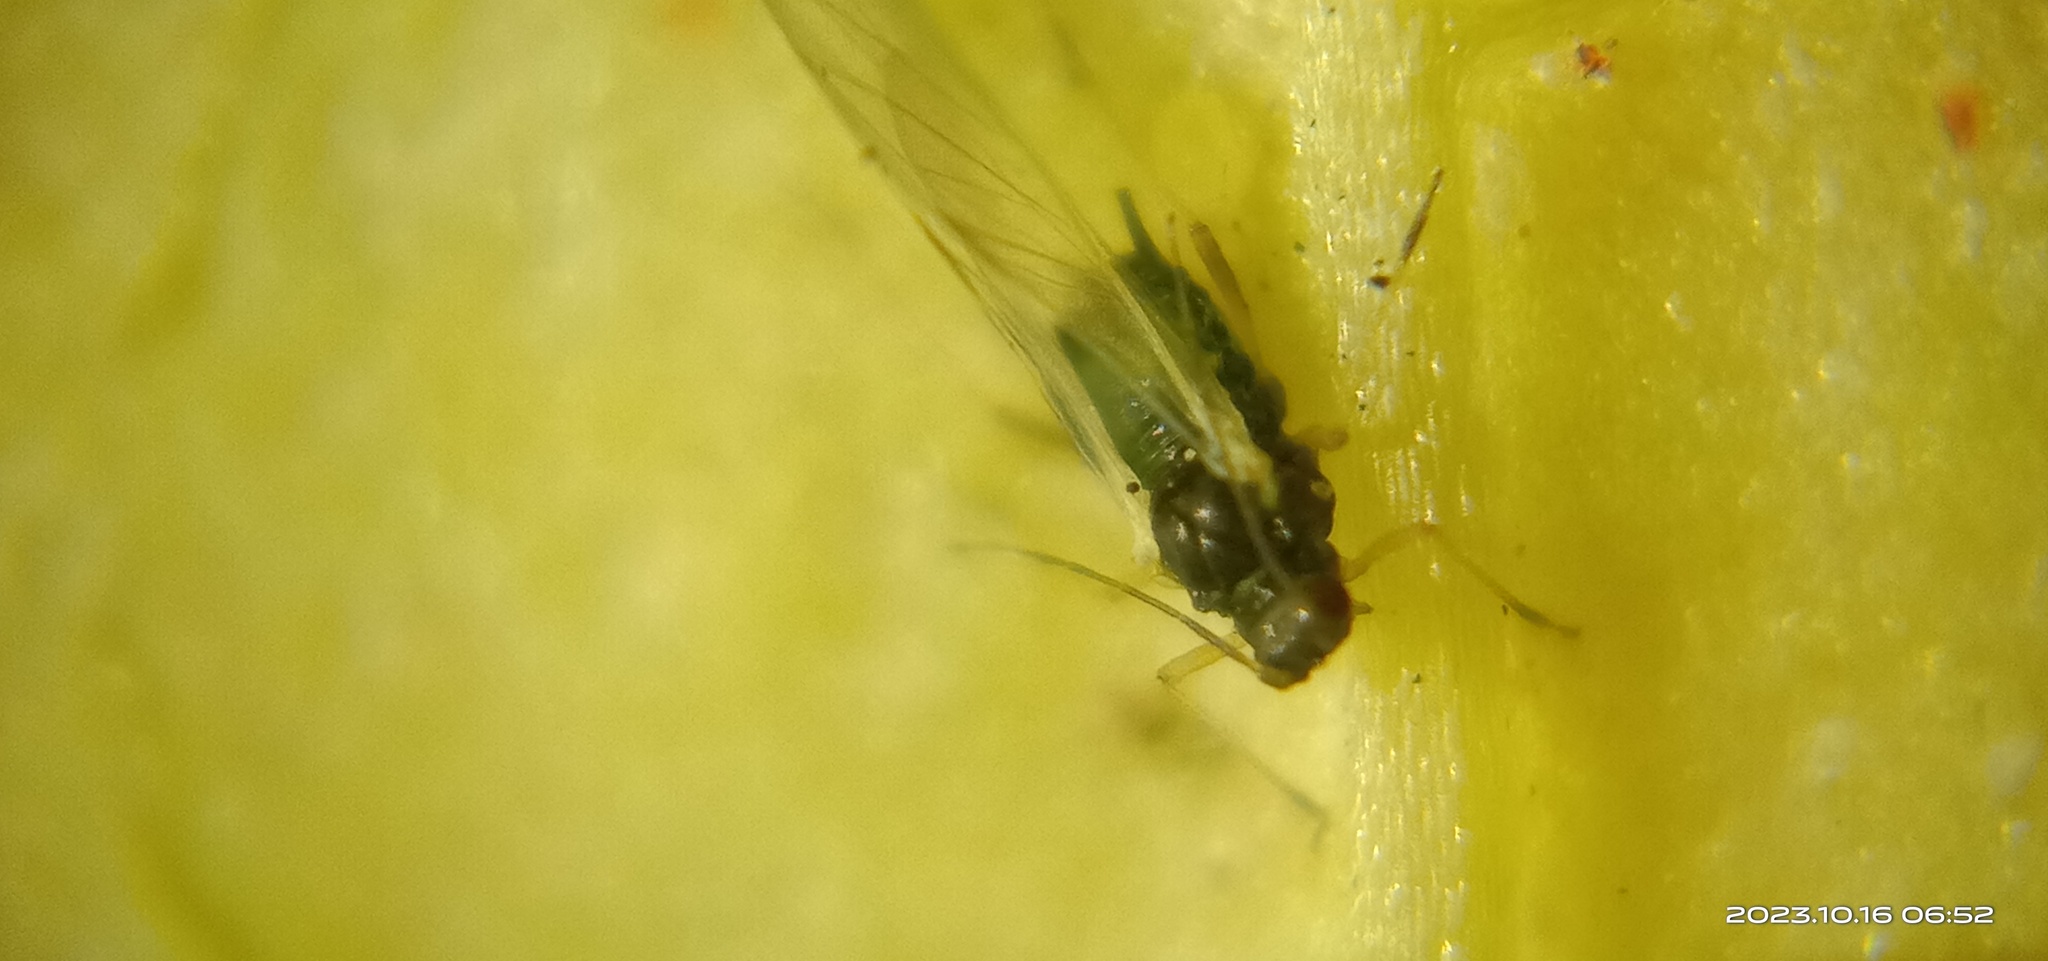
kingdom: Animalia
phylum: Arthropoda
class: Insecta
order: Hemiptera
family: Aphididae
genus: Aphis
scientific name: Aphis gossypii
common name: Melon aphid
